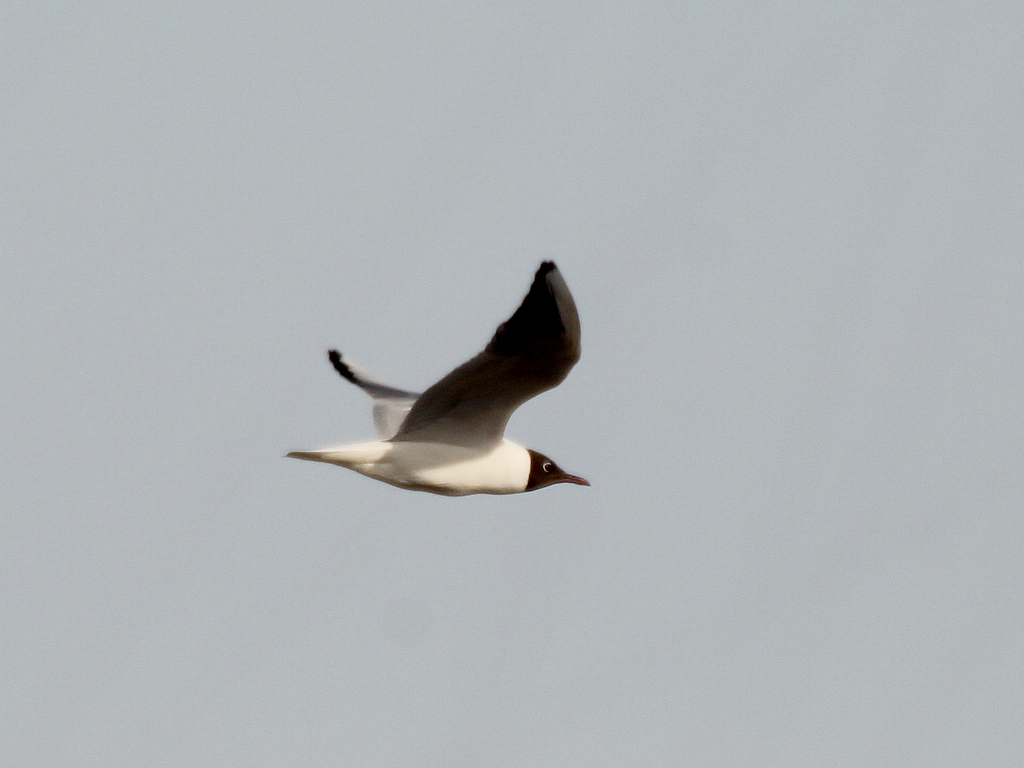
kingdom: Animalia
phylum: Chordata
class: Aves
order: Charadriiformes
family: Laridae
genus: Chroicocephalus
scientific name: Chroicocephalus ridibundus
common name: Black-headed gull
